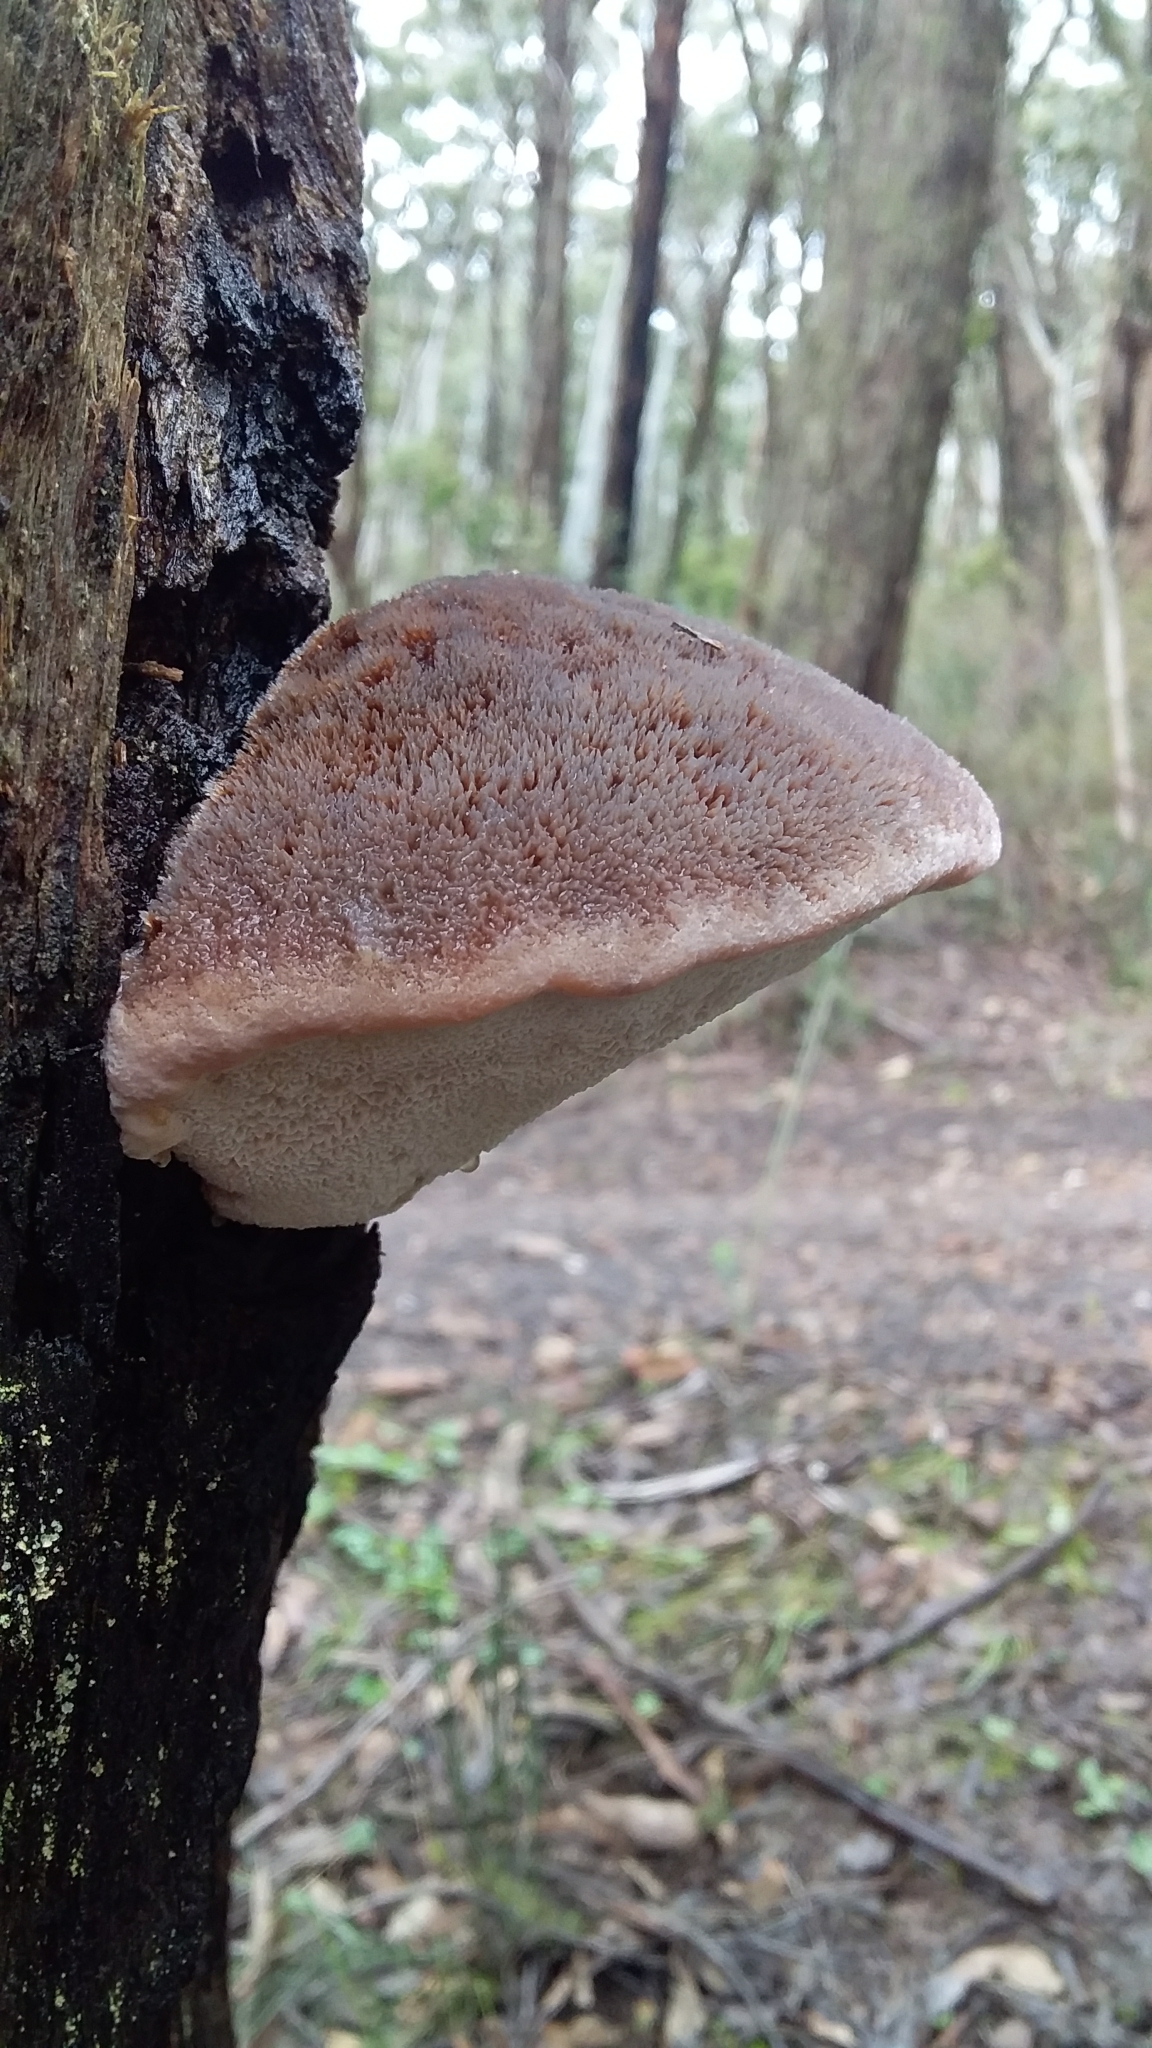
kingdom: Fungi
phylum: Basidiomycota
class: Agaricomycetes
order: Polyporales
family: Dacryobolaceae
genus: Oligoporus
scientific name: Oligoporus pelliculosus
